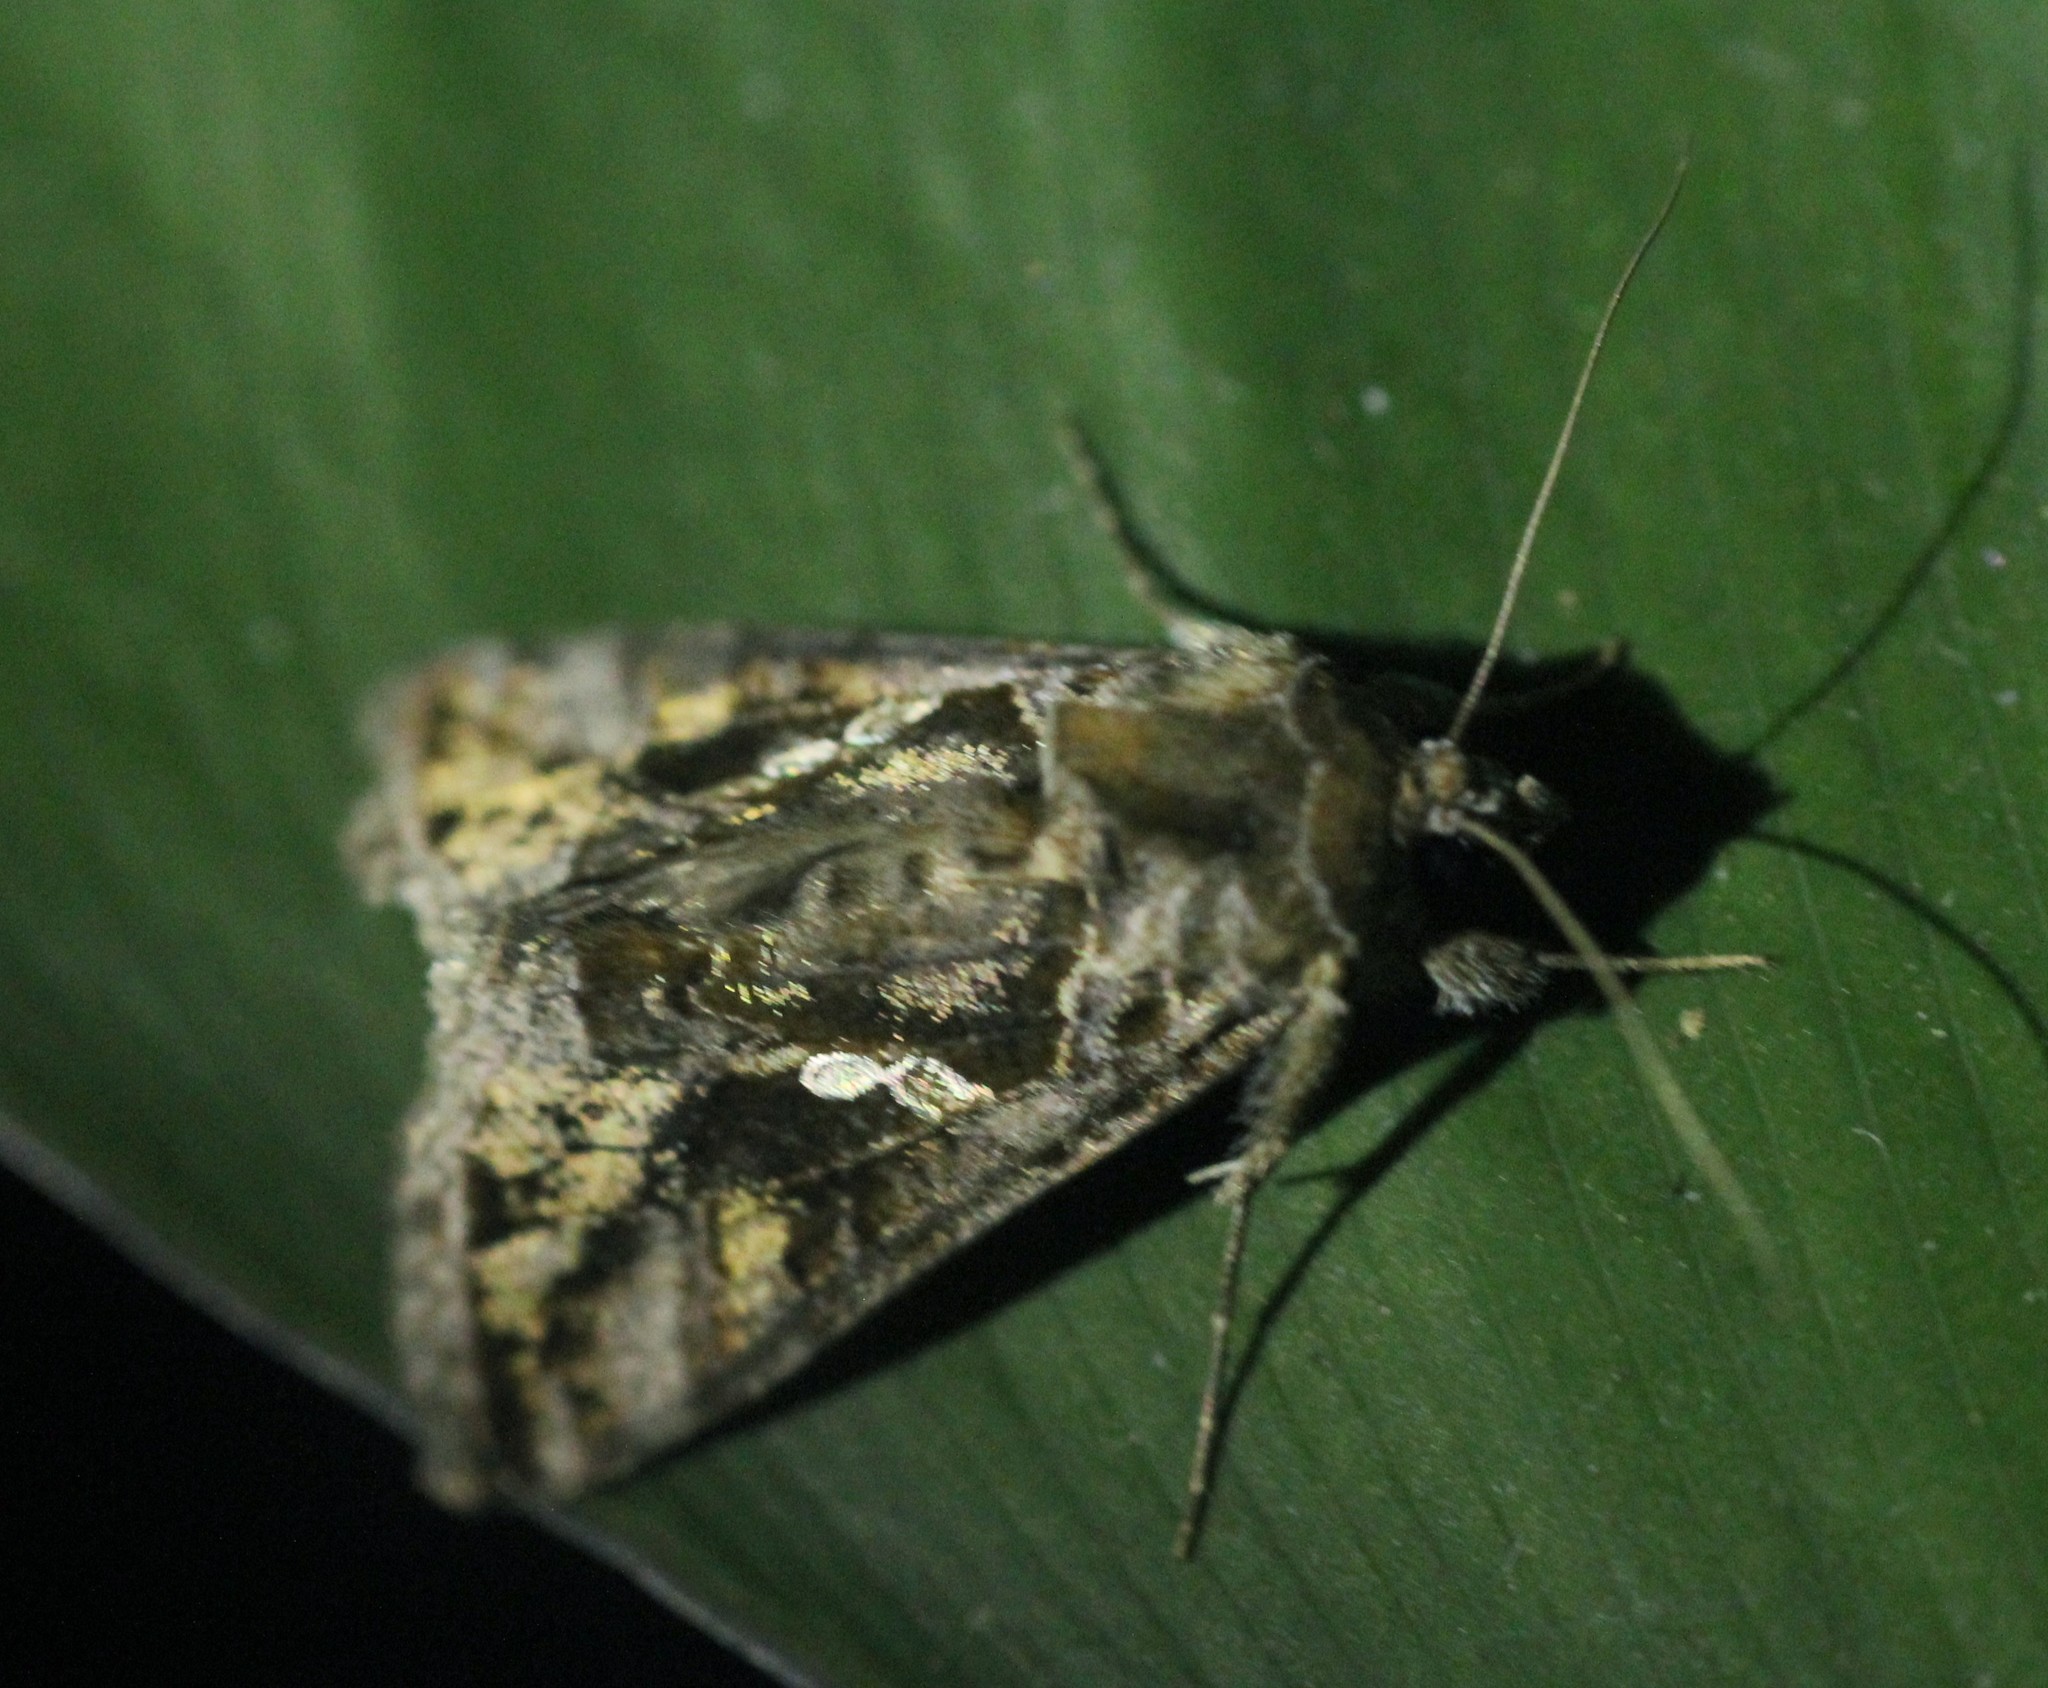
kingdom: Animalia
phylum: Arthropoda
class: Insecta
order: Lepidoptera
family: Noctuidae
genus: Chrysodeixis
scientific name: Chrysodeixis includens
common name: Cutworm moth
